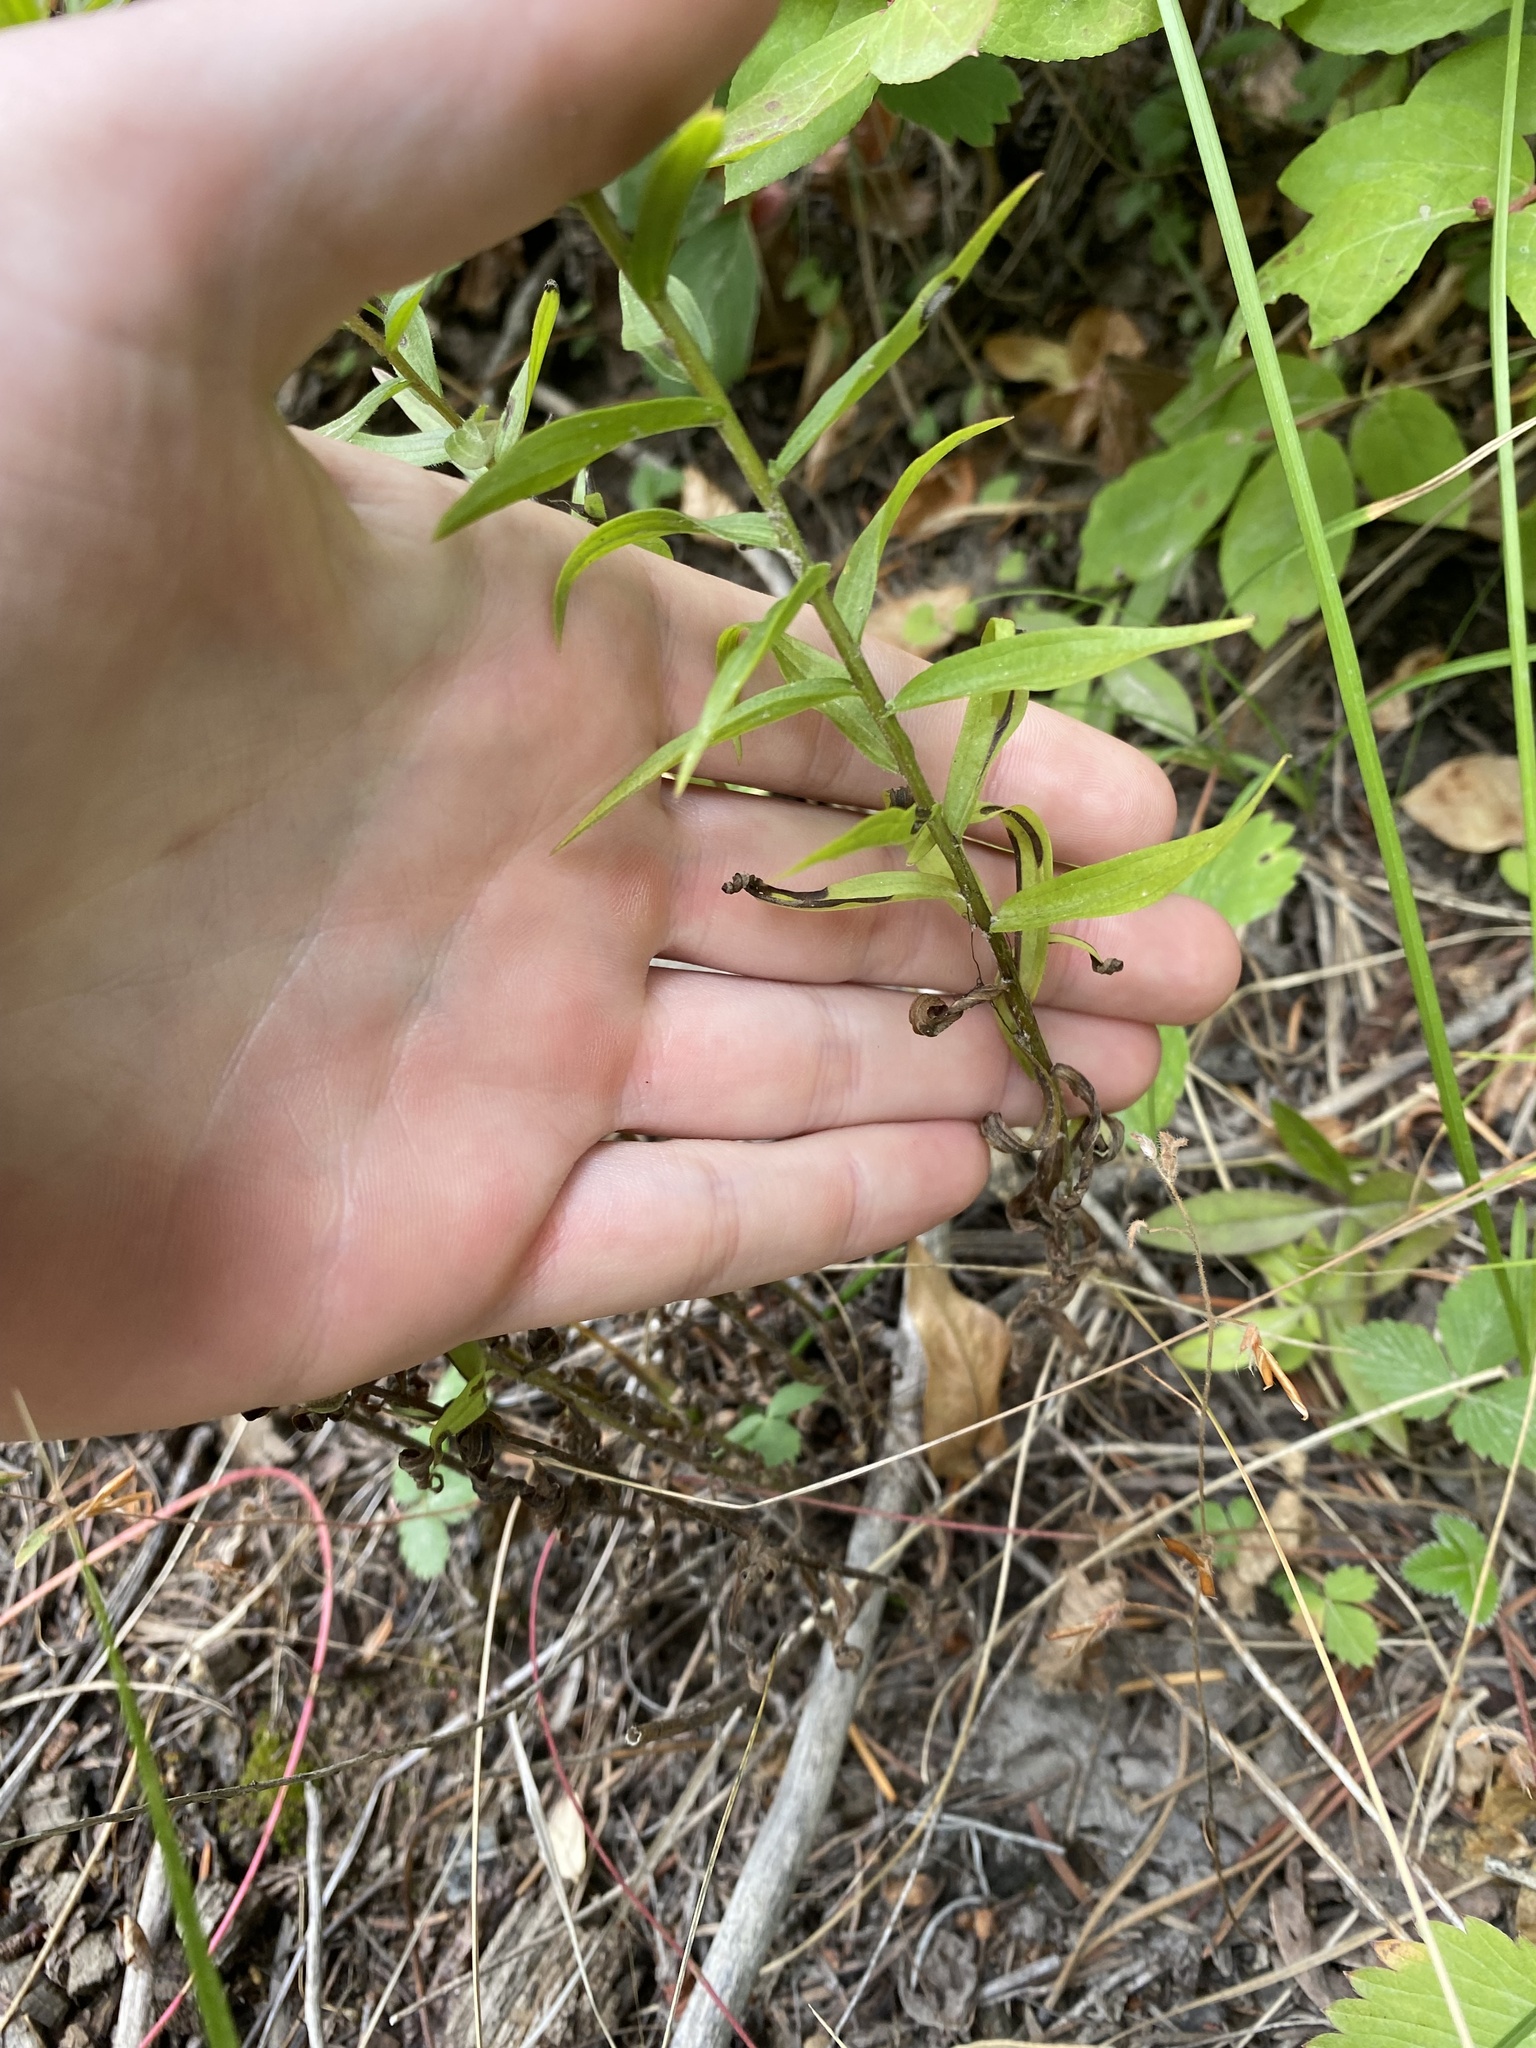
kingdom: Plantae
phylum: Tracheophyta
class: Magnoliopsida
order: Lamiales
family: Orobanchaceae
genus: Castilleja
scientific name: Castilleja miniata
